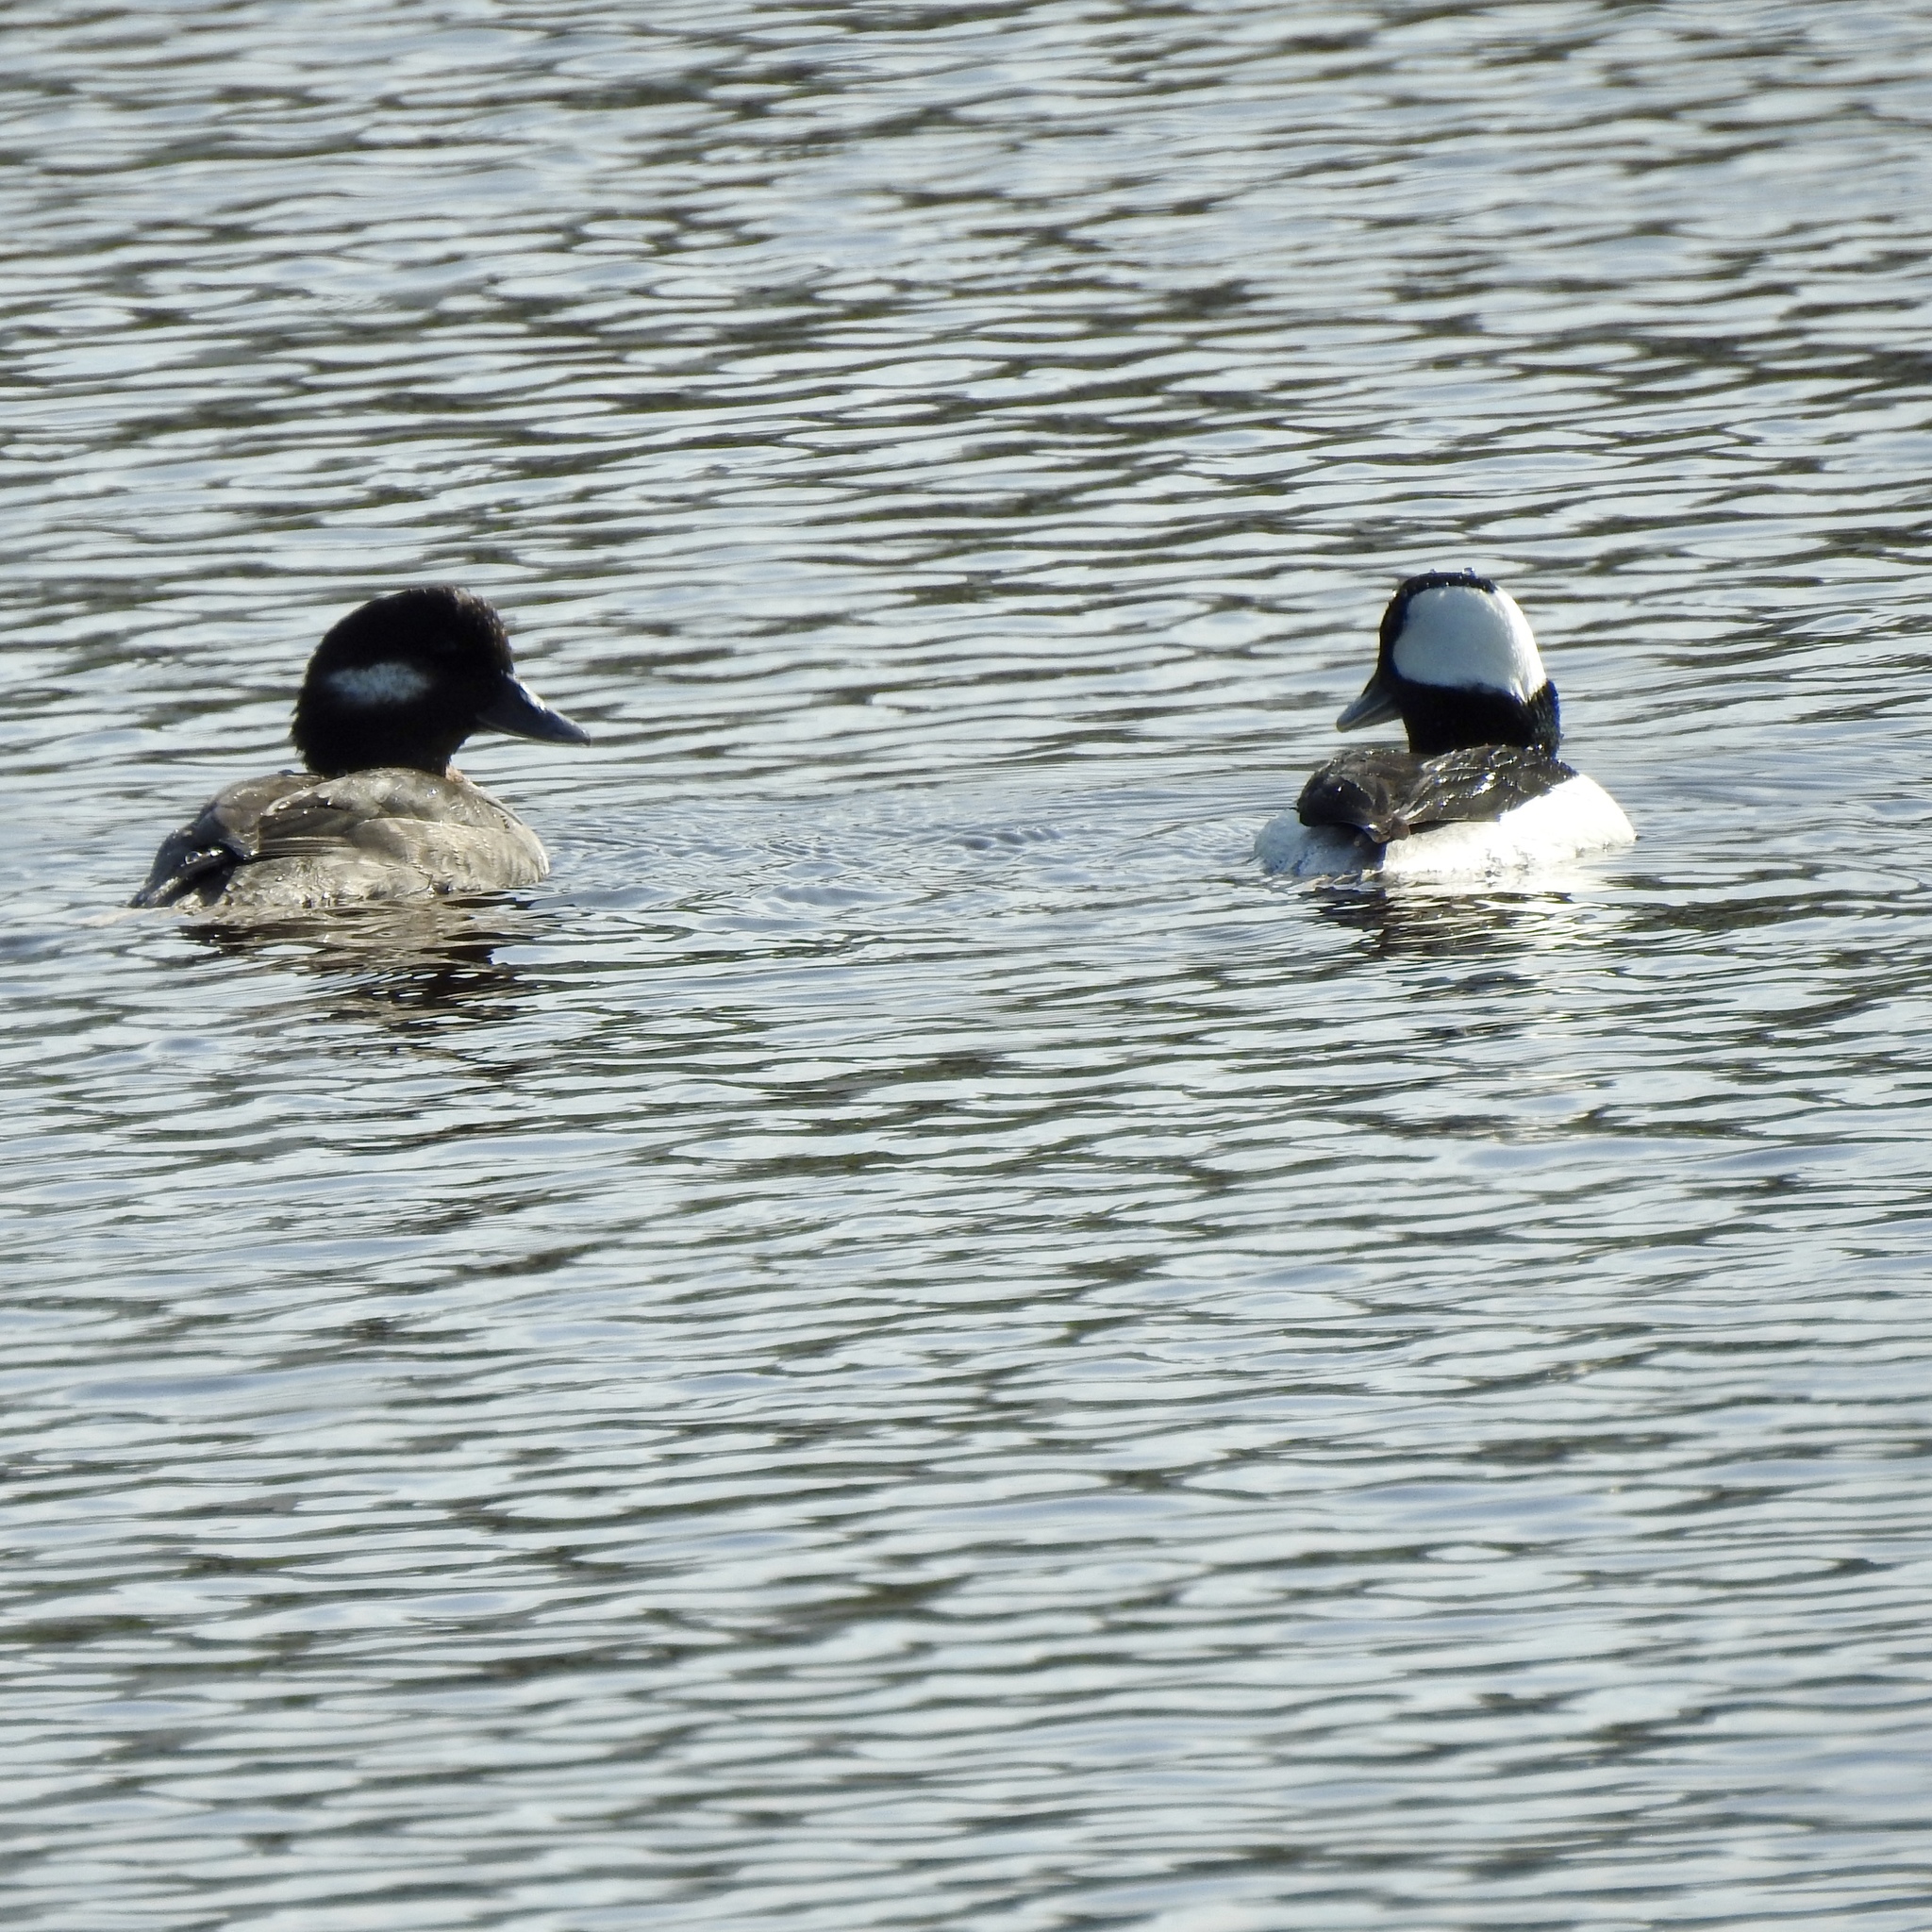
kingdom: Animalia
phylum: Chordata
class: Aves
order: Anseriformes
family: Anatidae
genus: Bucephala
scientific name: Bucephala albeola
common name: Bufflehead
